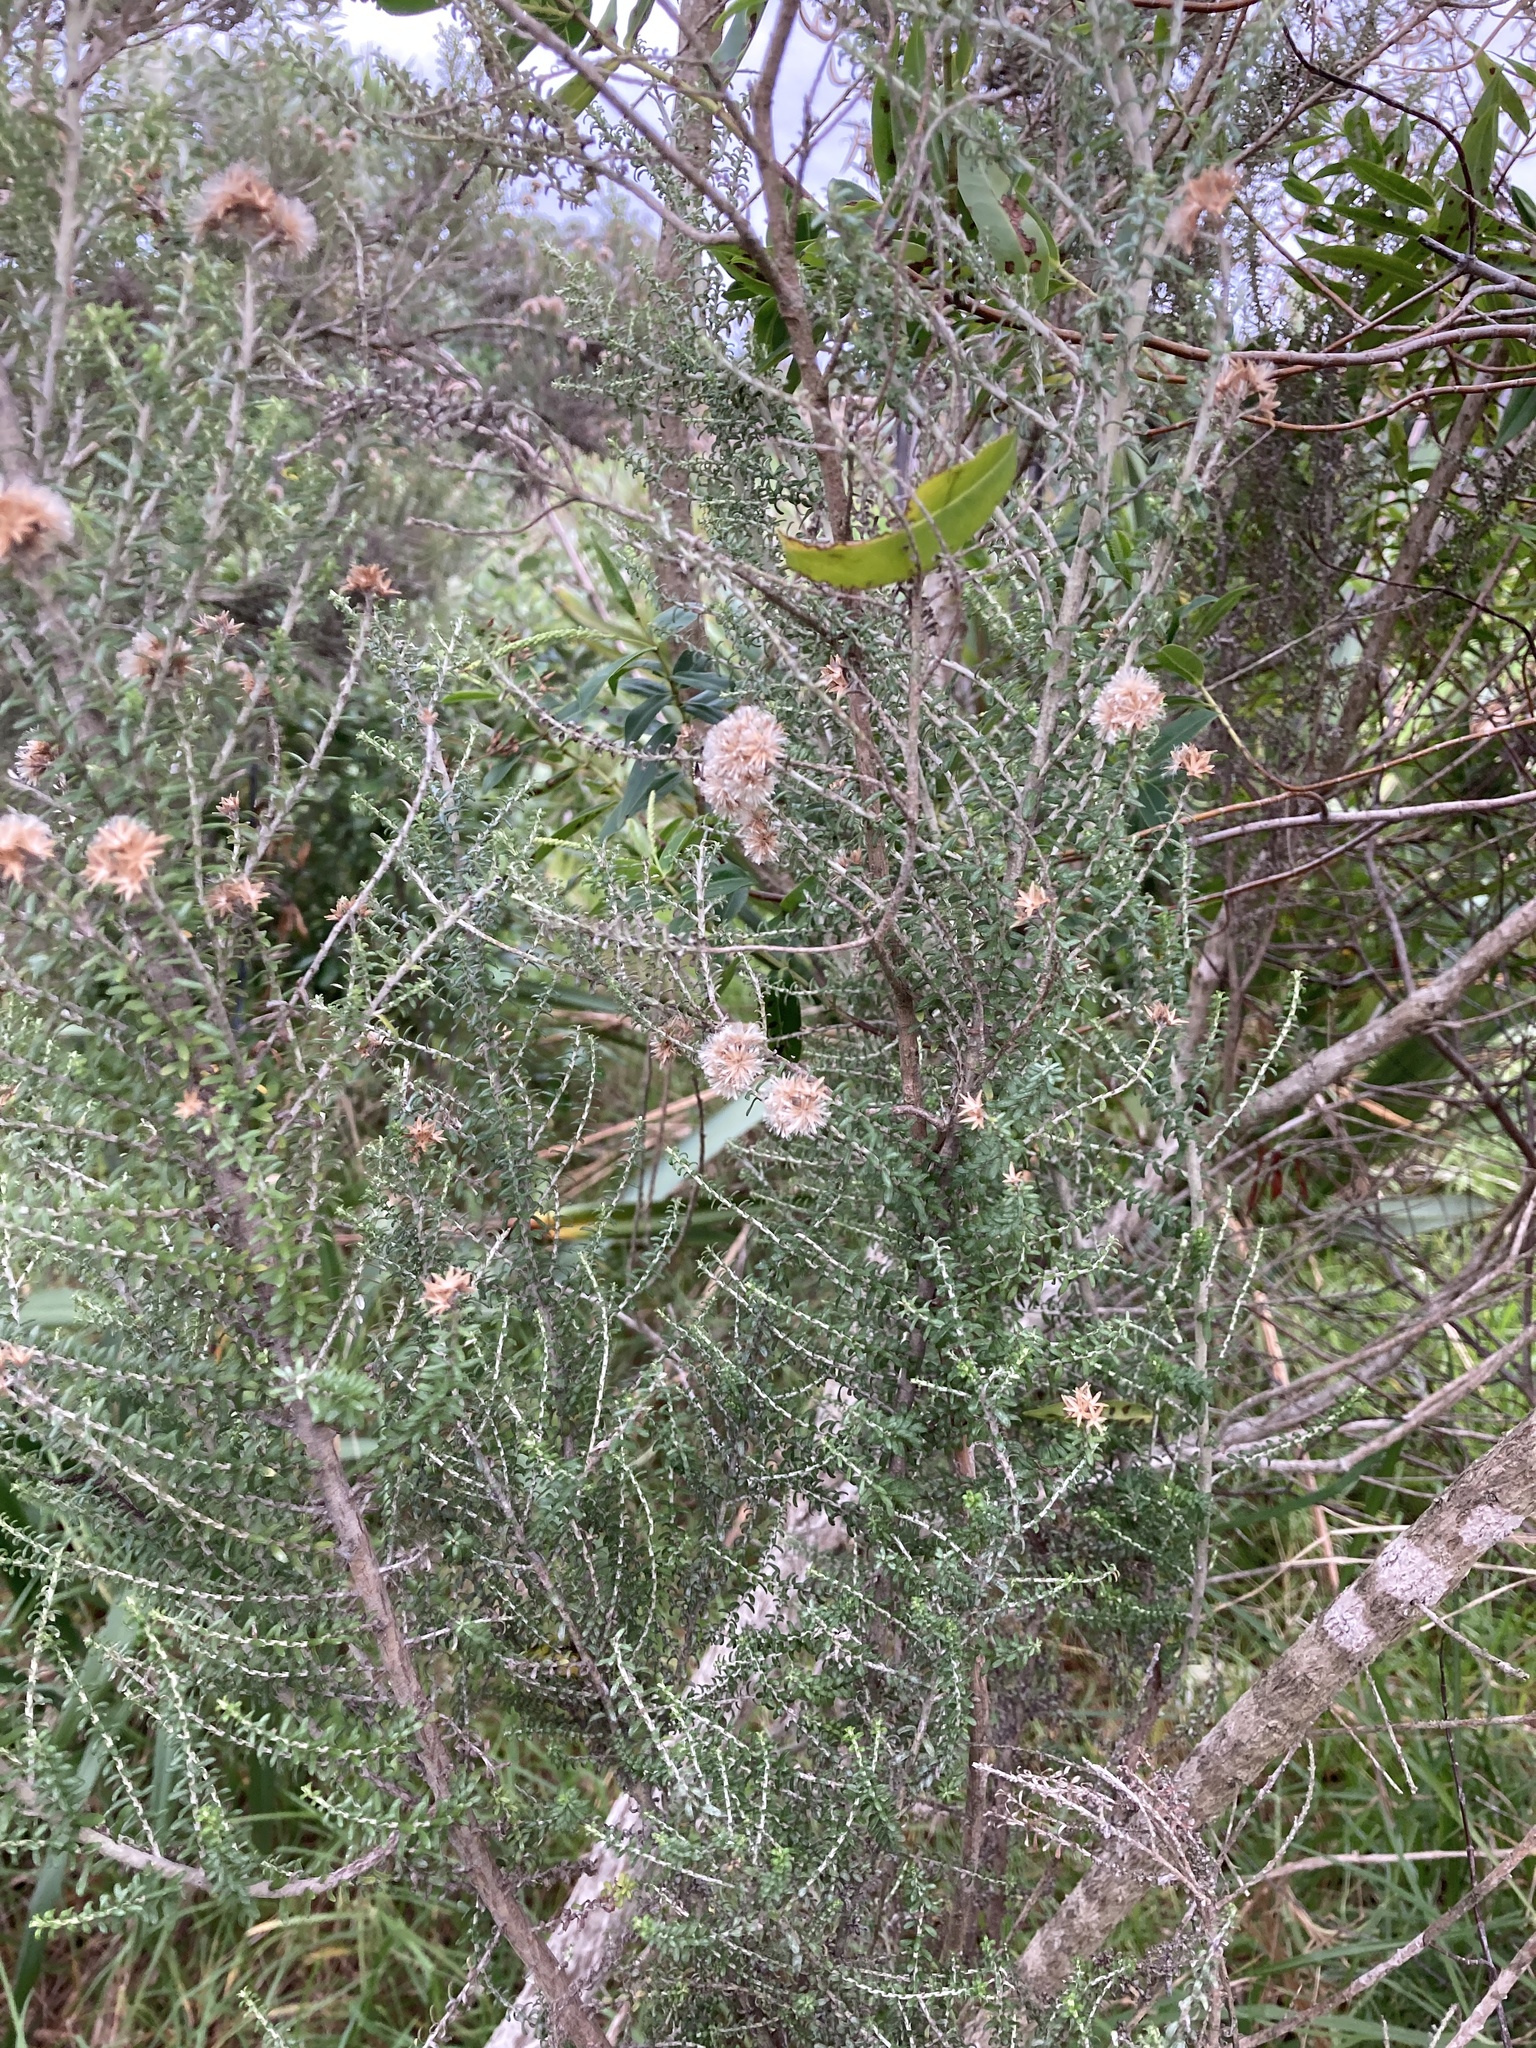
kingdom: Plantae
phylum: Tracheophyta
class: Magnoliopsida
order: Asterales
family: Asteraceae
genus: Ozothamnus
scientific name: Ozothamnus leptophyllus
